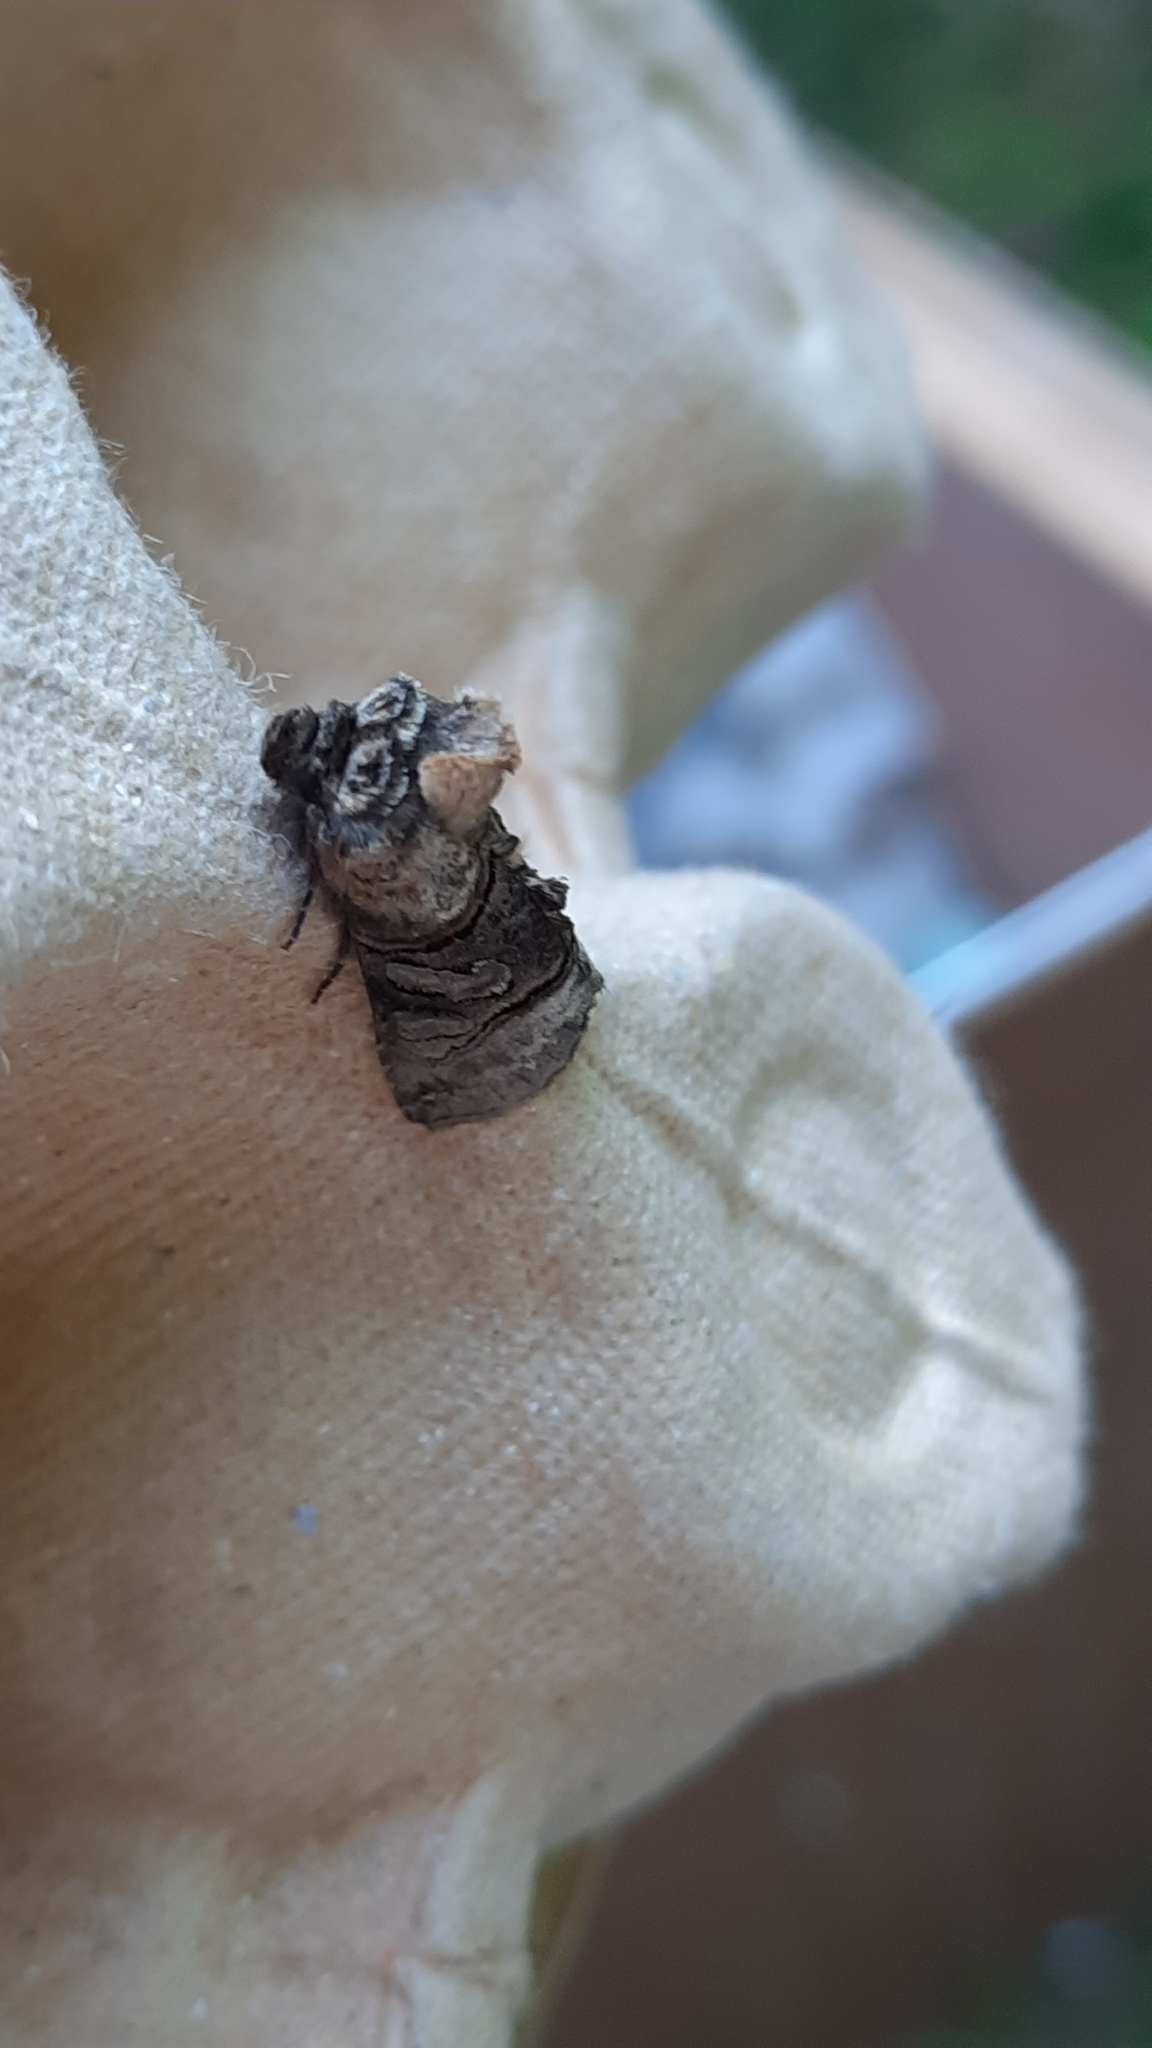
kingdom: Animalia
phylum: Arthropoda
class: Insecta
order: Lepidoptera
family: Noctuidae
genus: Abrostola
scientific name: Abrostola tripartita
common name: Spectacle
